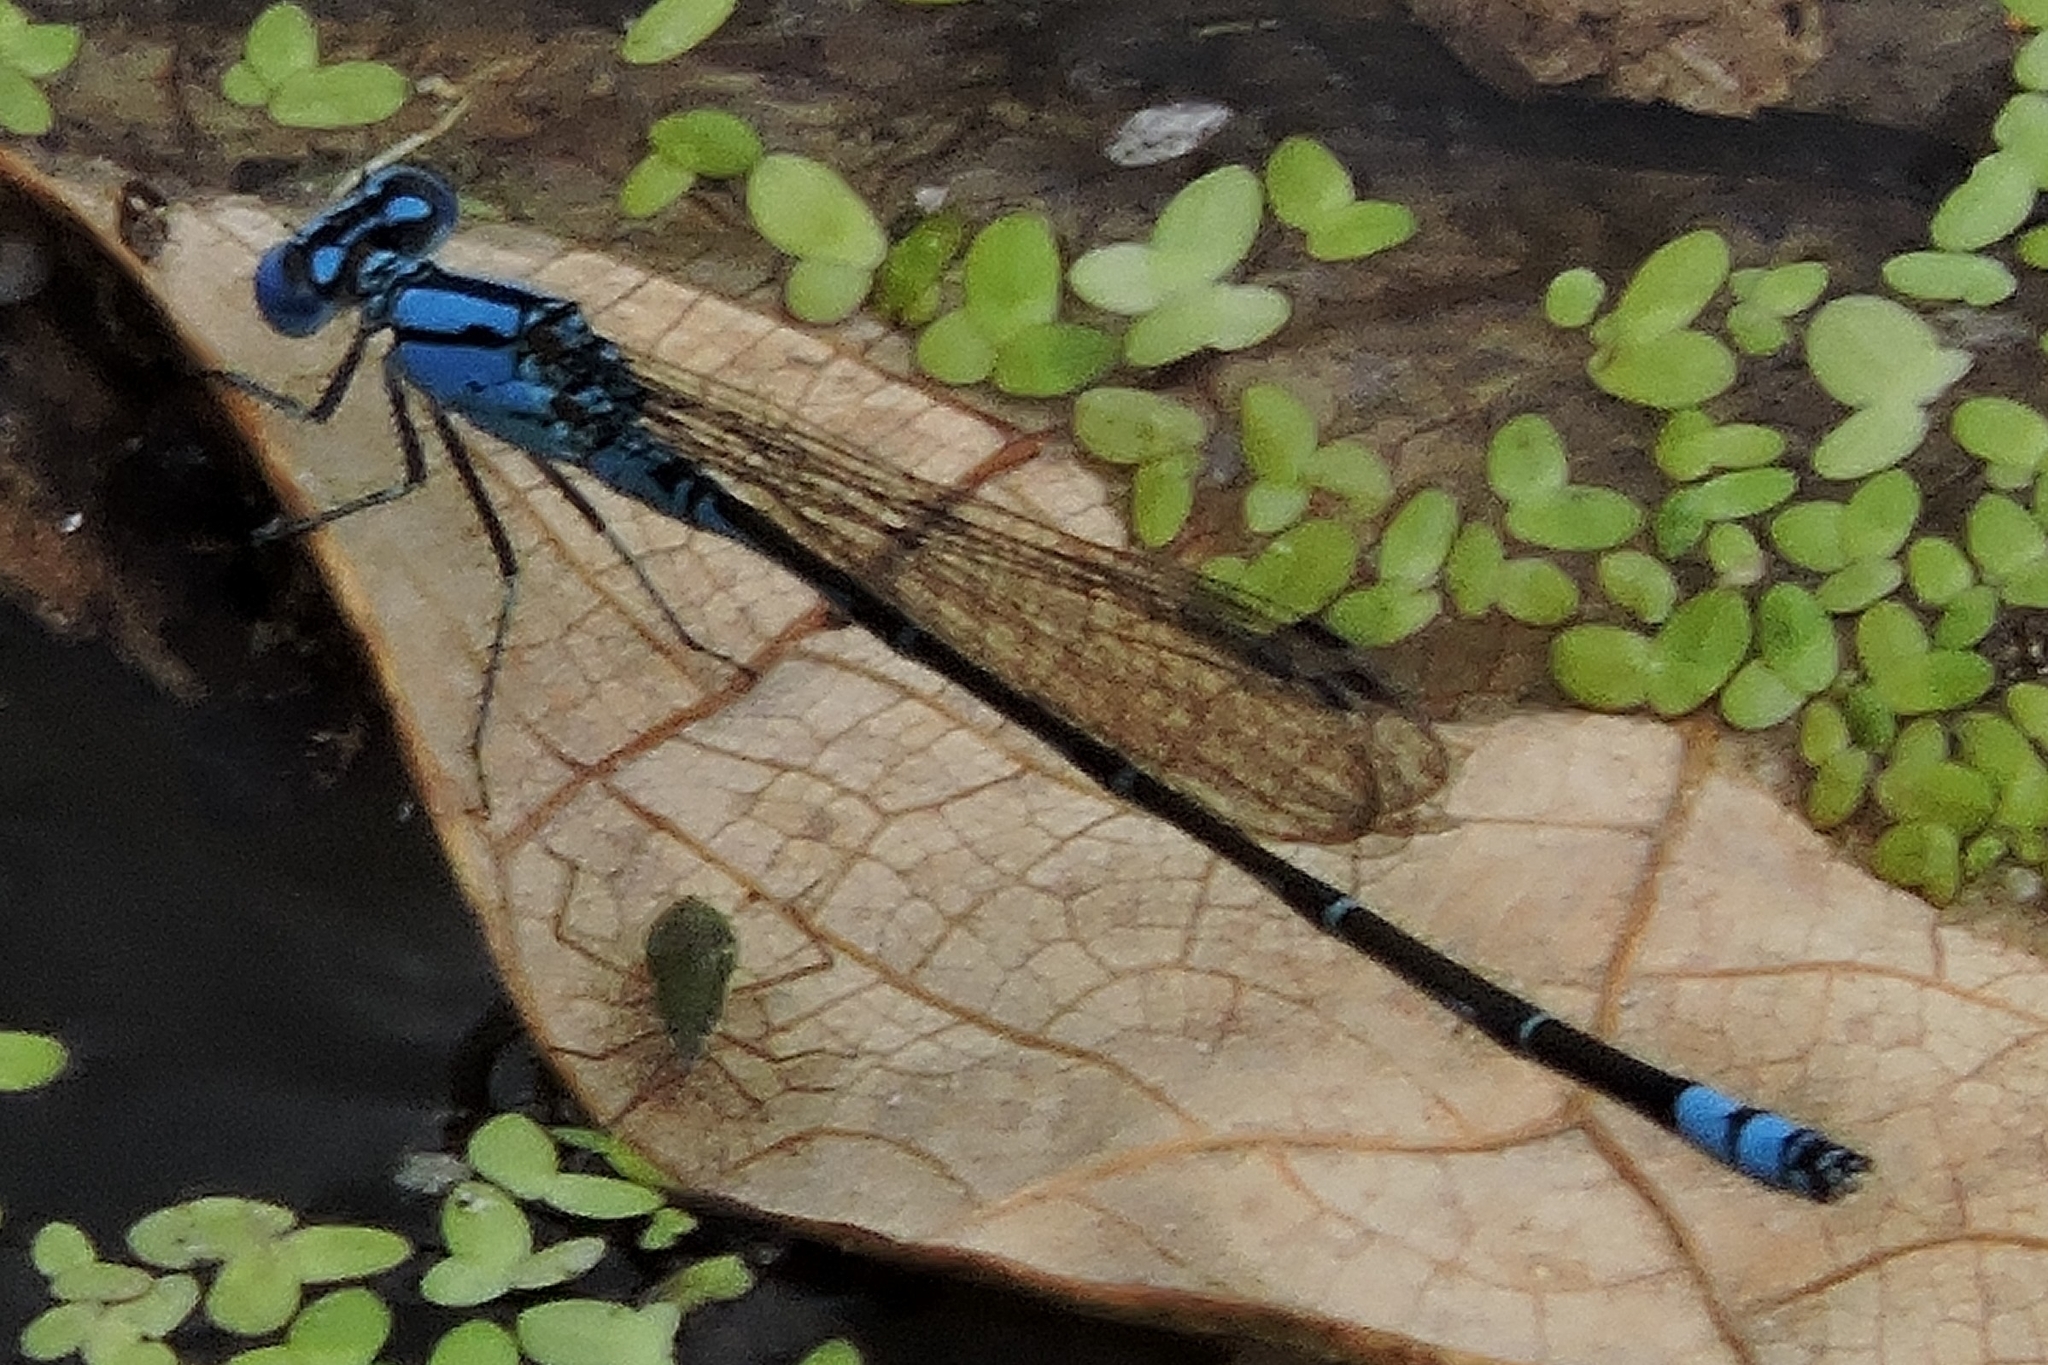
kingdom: Animalia
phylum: Arthropoda
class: Insecta
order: Odonata
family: Coenagrionidae
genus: Pseudagrion
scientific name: Pseudagrion microcephalum
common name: Blue riverdamsel
